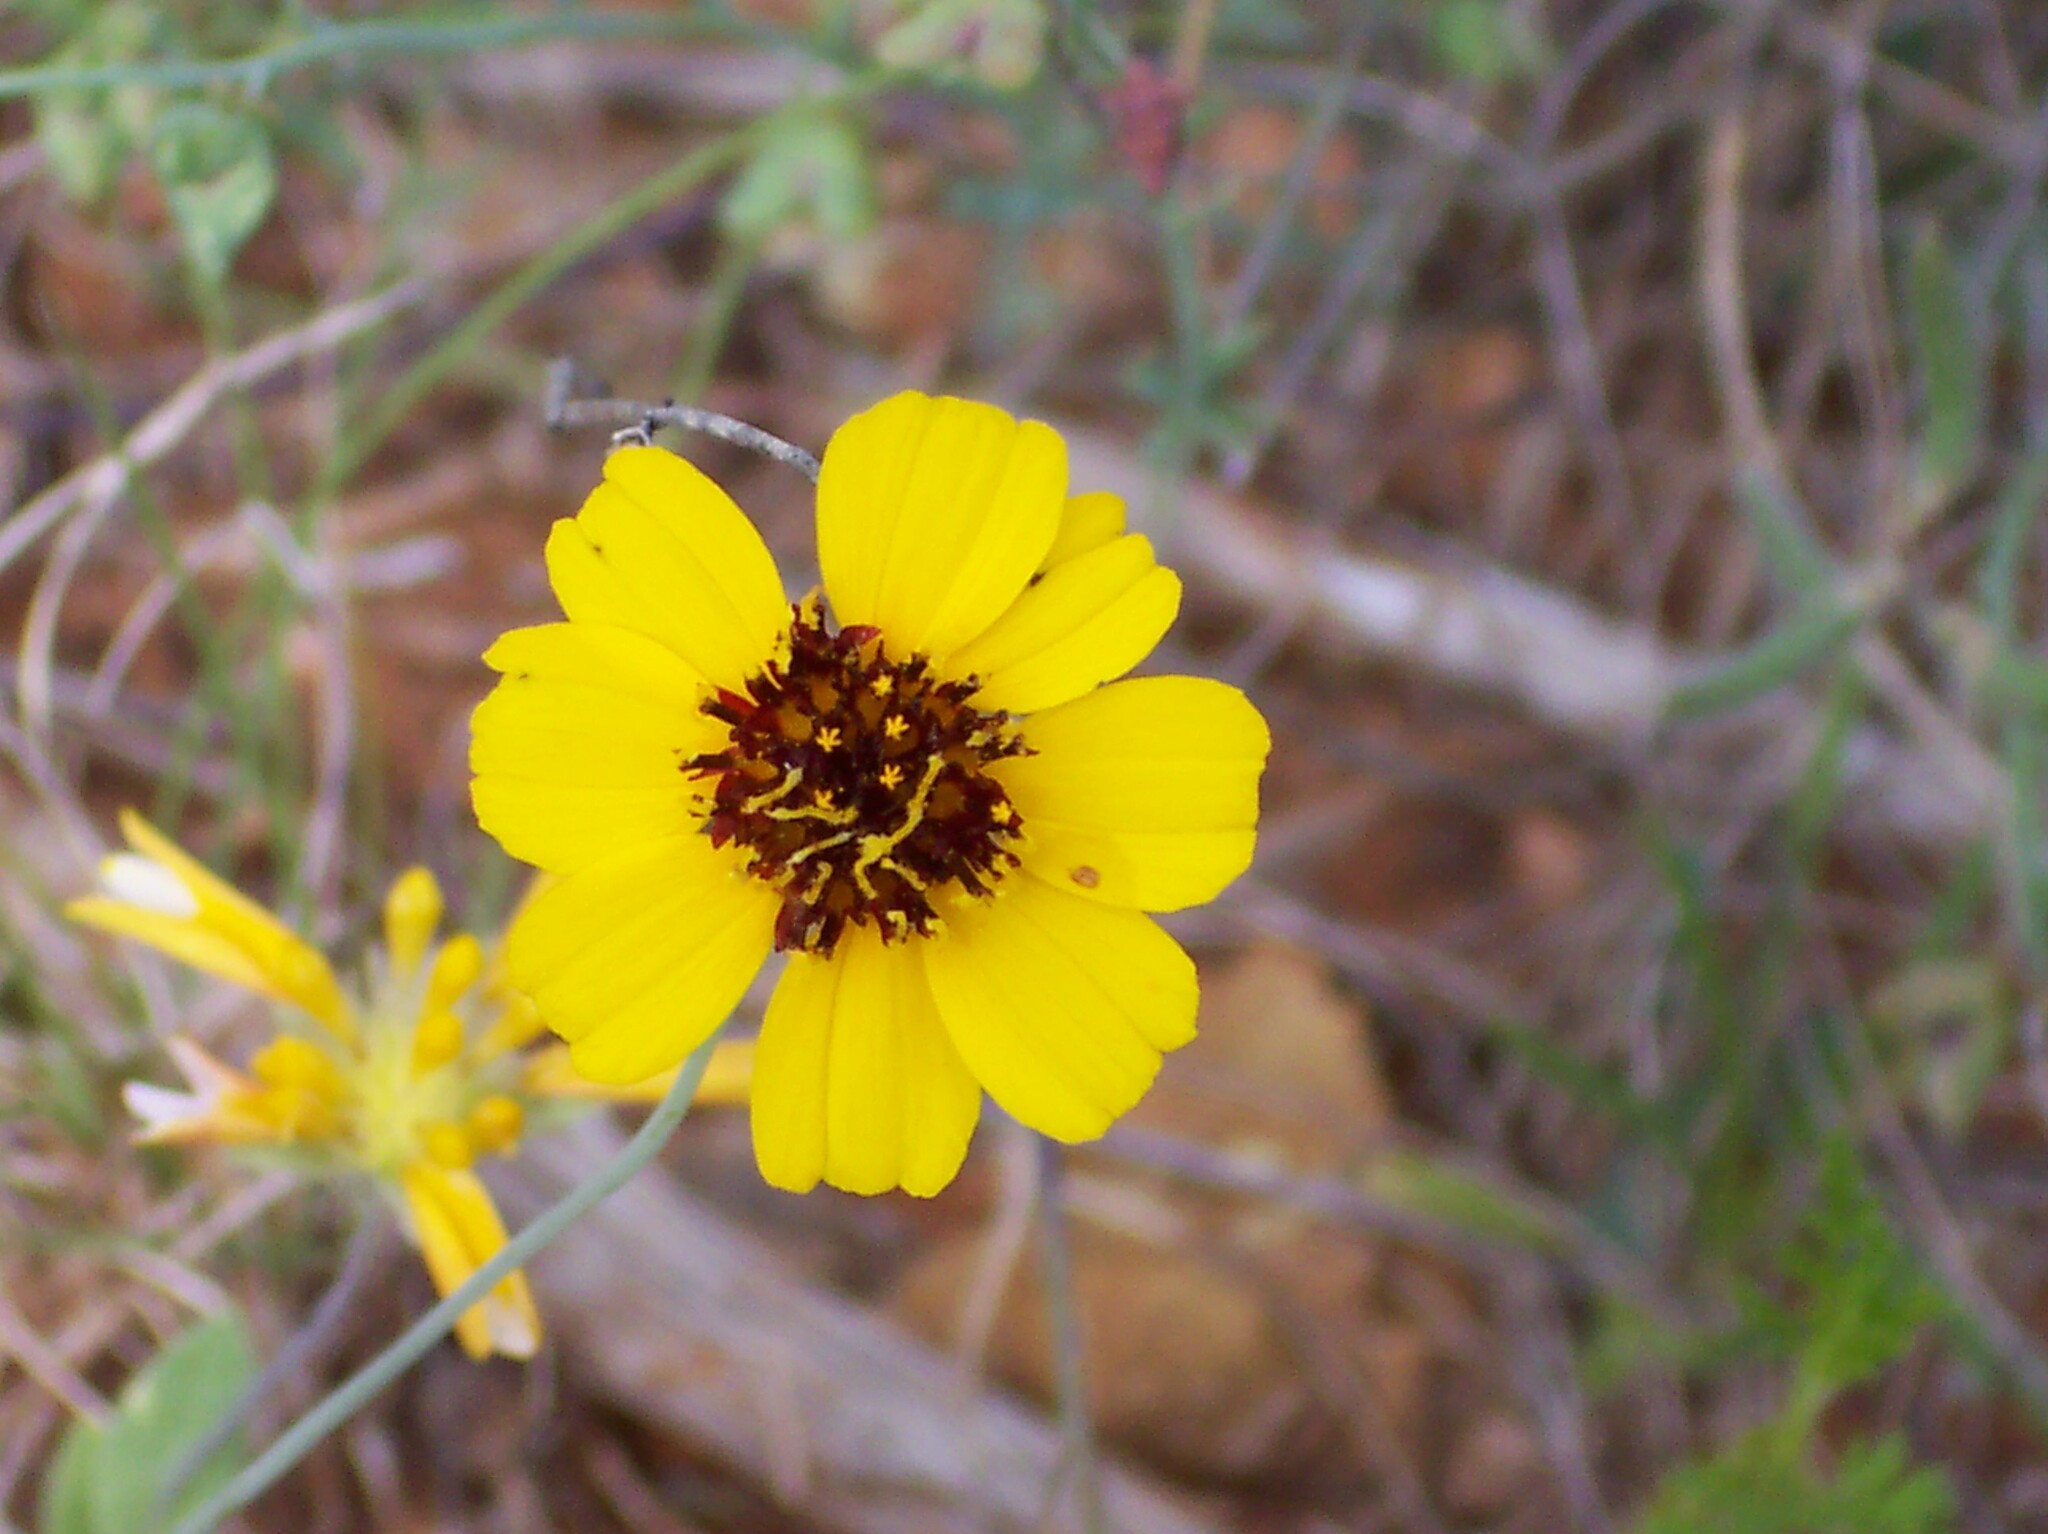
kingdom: Plantae
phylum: Tracheophyta
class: Magnoliopsida
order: Asterales
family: Asteraceae
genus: Thelesperma
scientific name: Thelesperma filifolium
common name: Stiff greenthread
